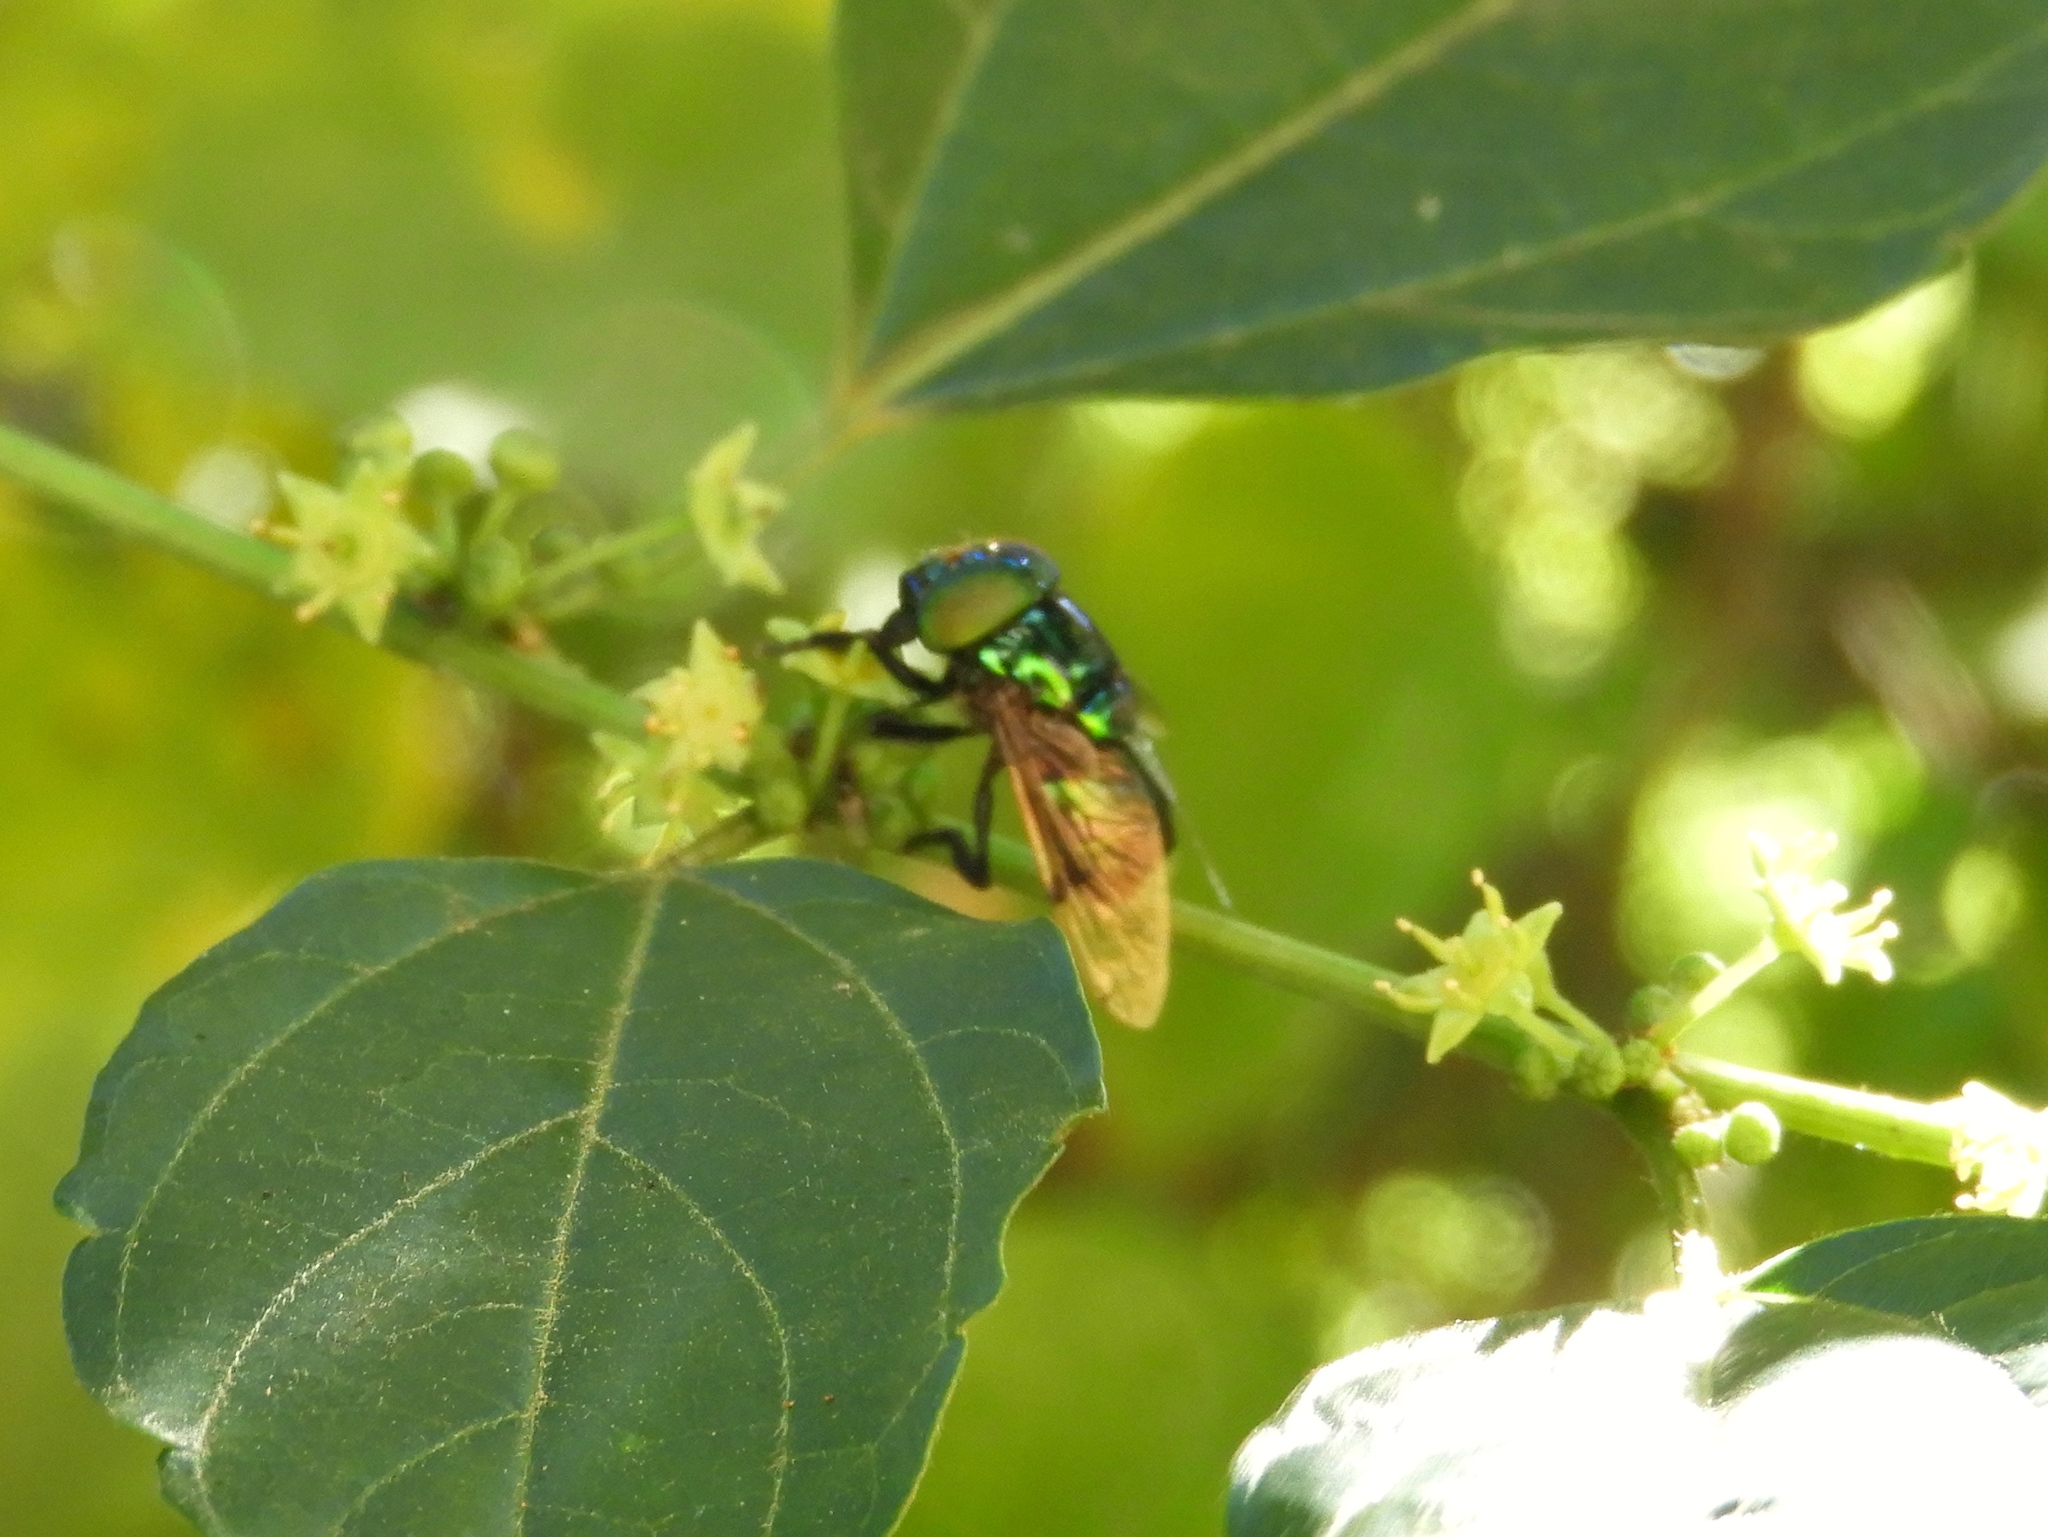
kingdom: Animalia
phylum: Arthropoda
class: Insecta
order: Diptera
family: Syrphidae
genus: Ornidia
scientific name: Ornidia
